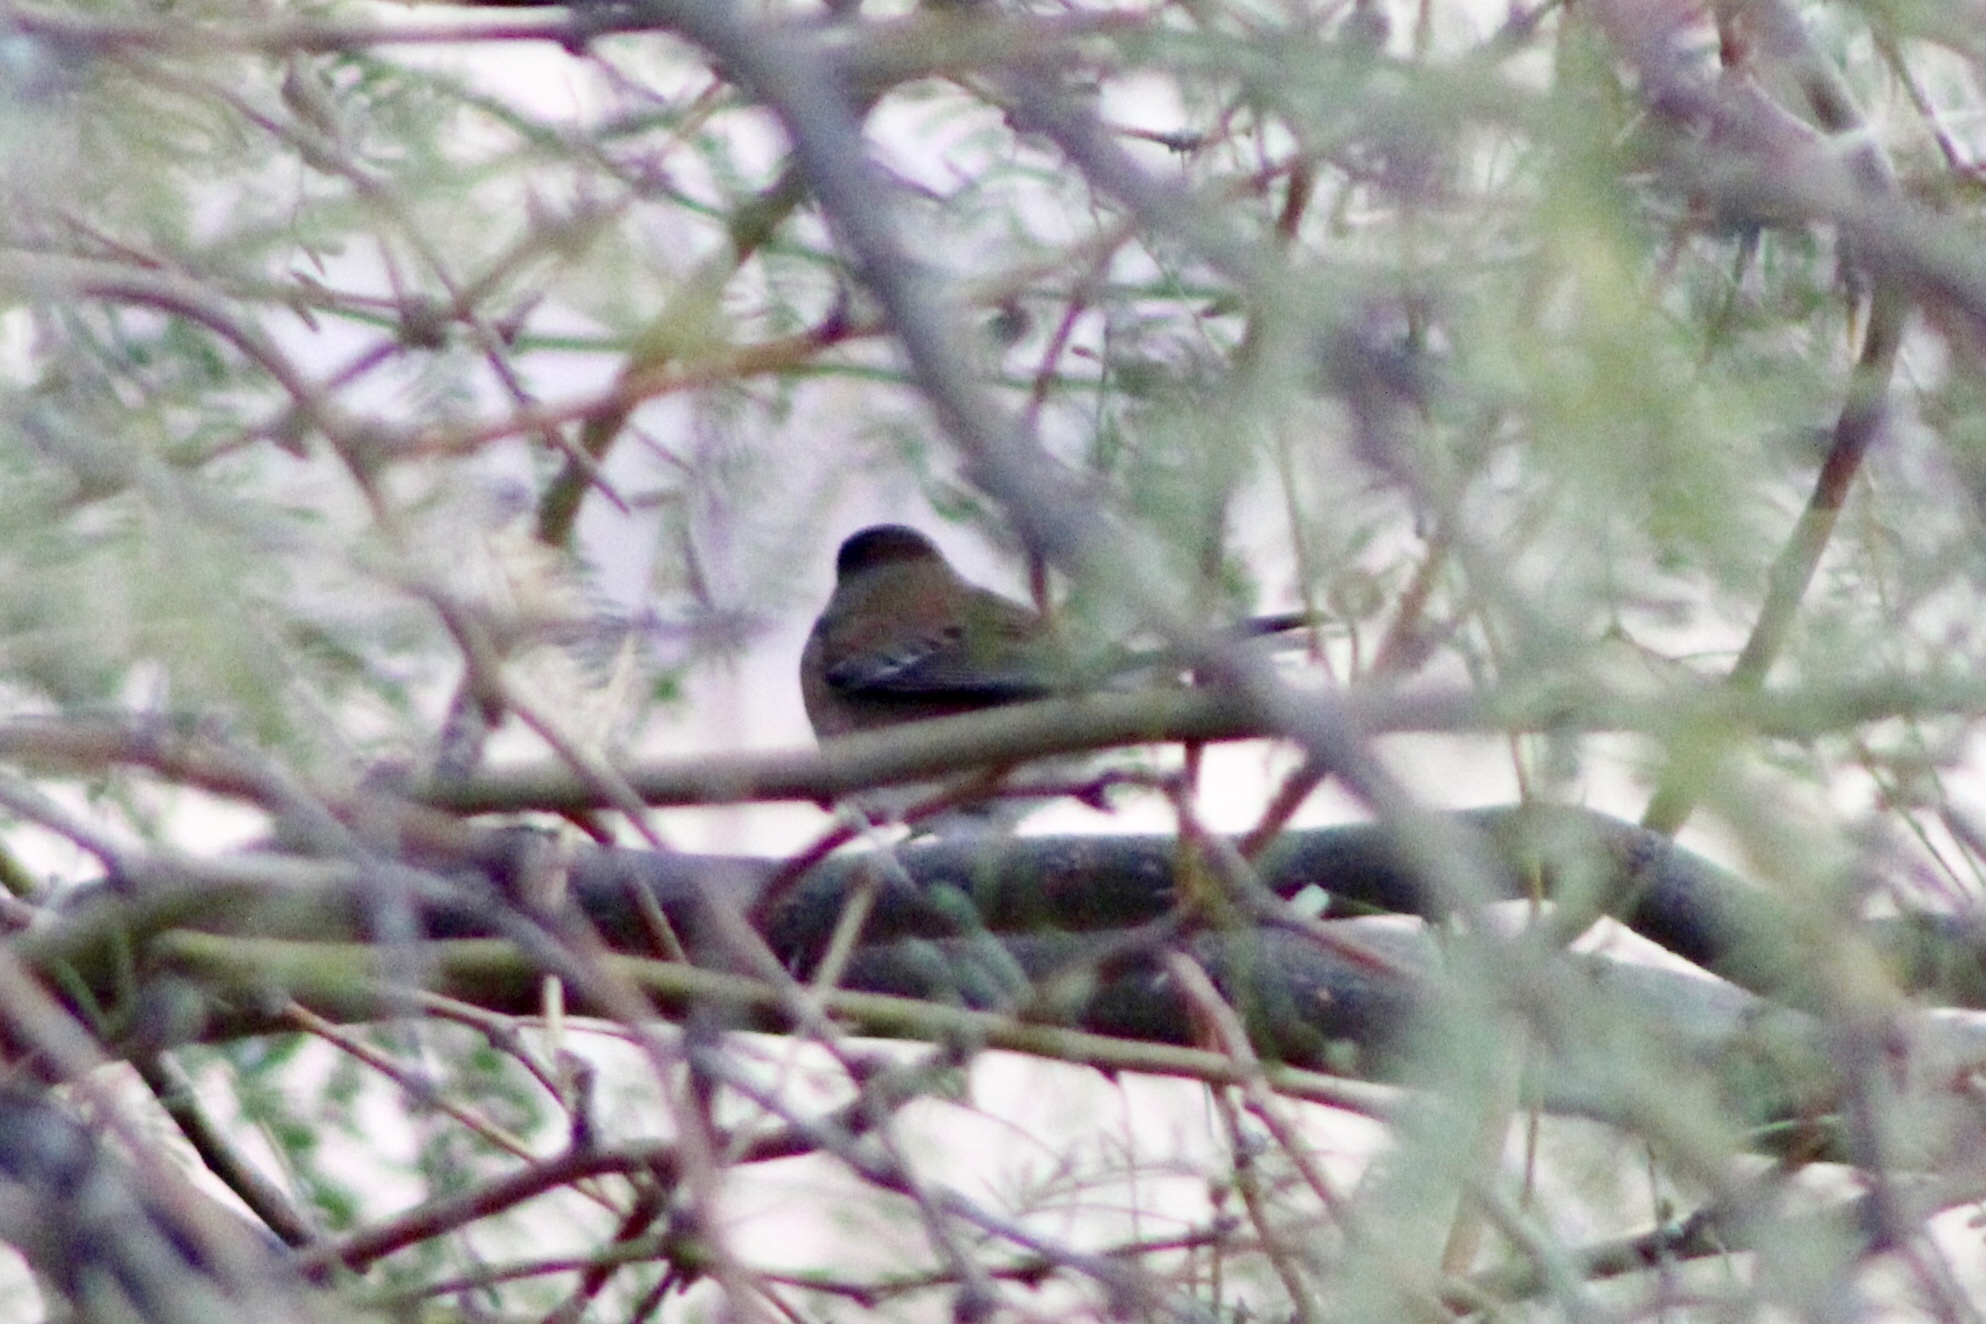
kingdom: Animalia
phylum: Chordata
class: Aves
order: Passeriformes
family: Passerellidae
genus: Junco
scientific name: Junco hyemalis
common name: Dark-eyed junco
